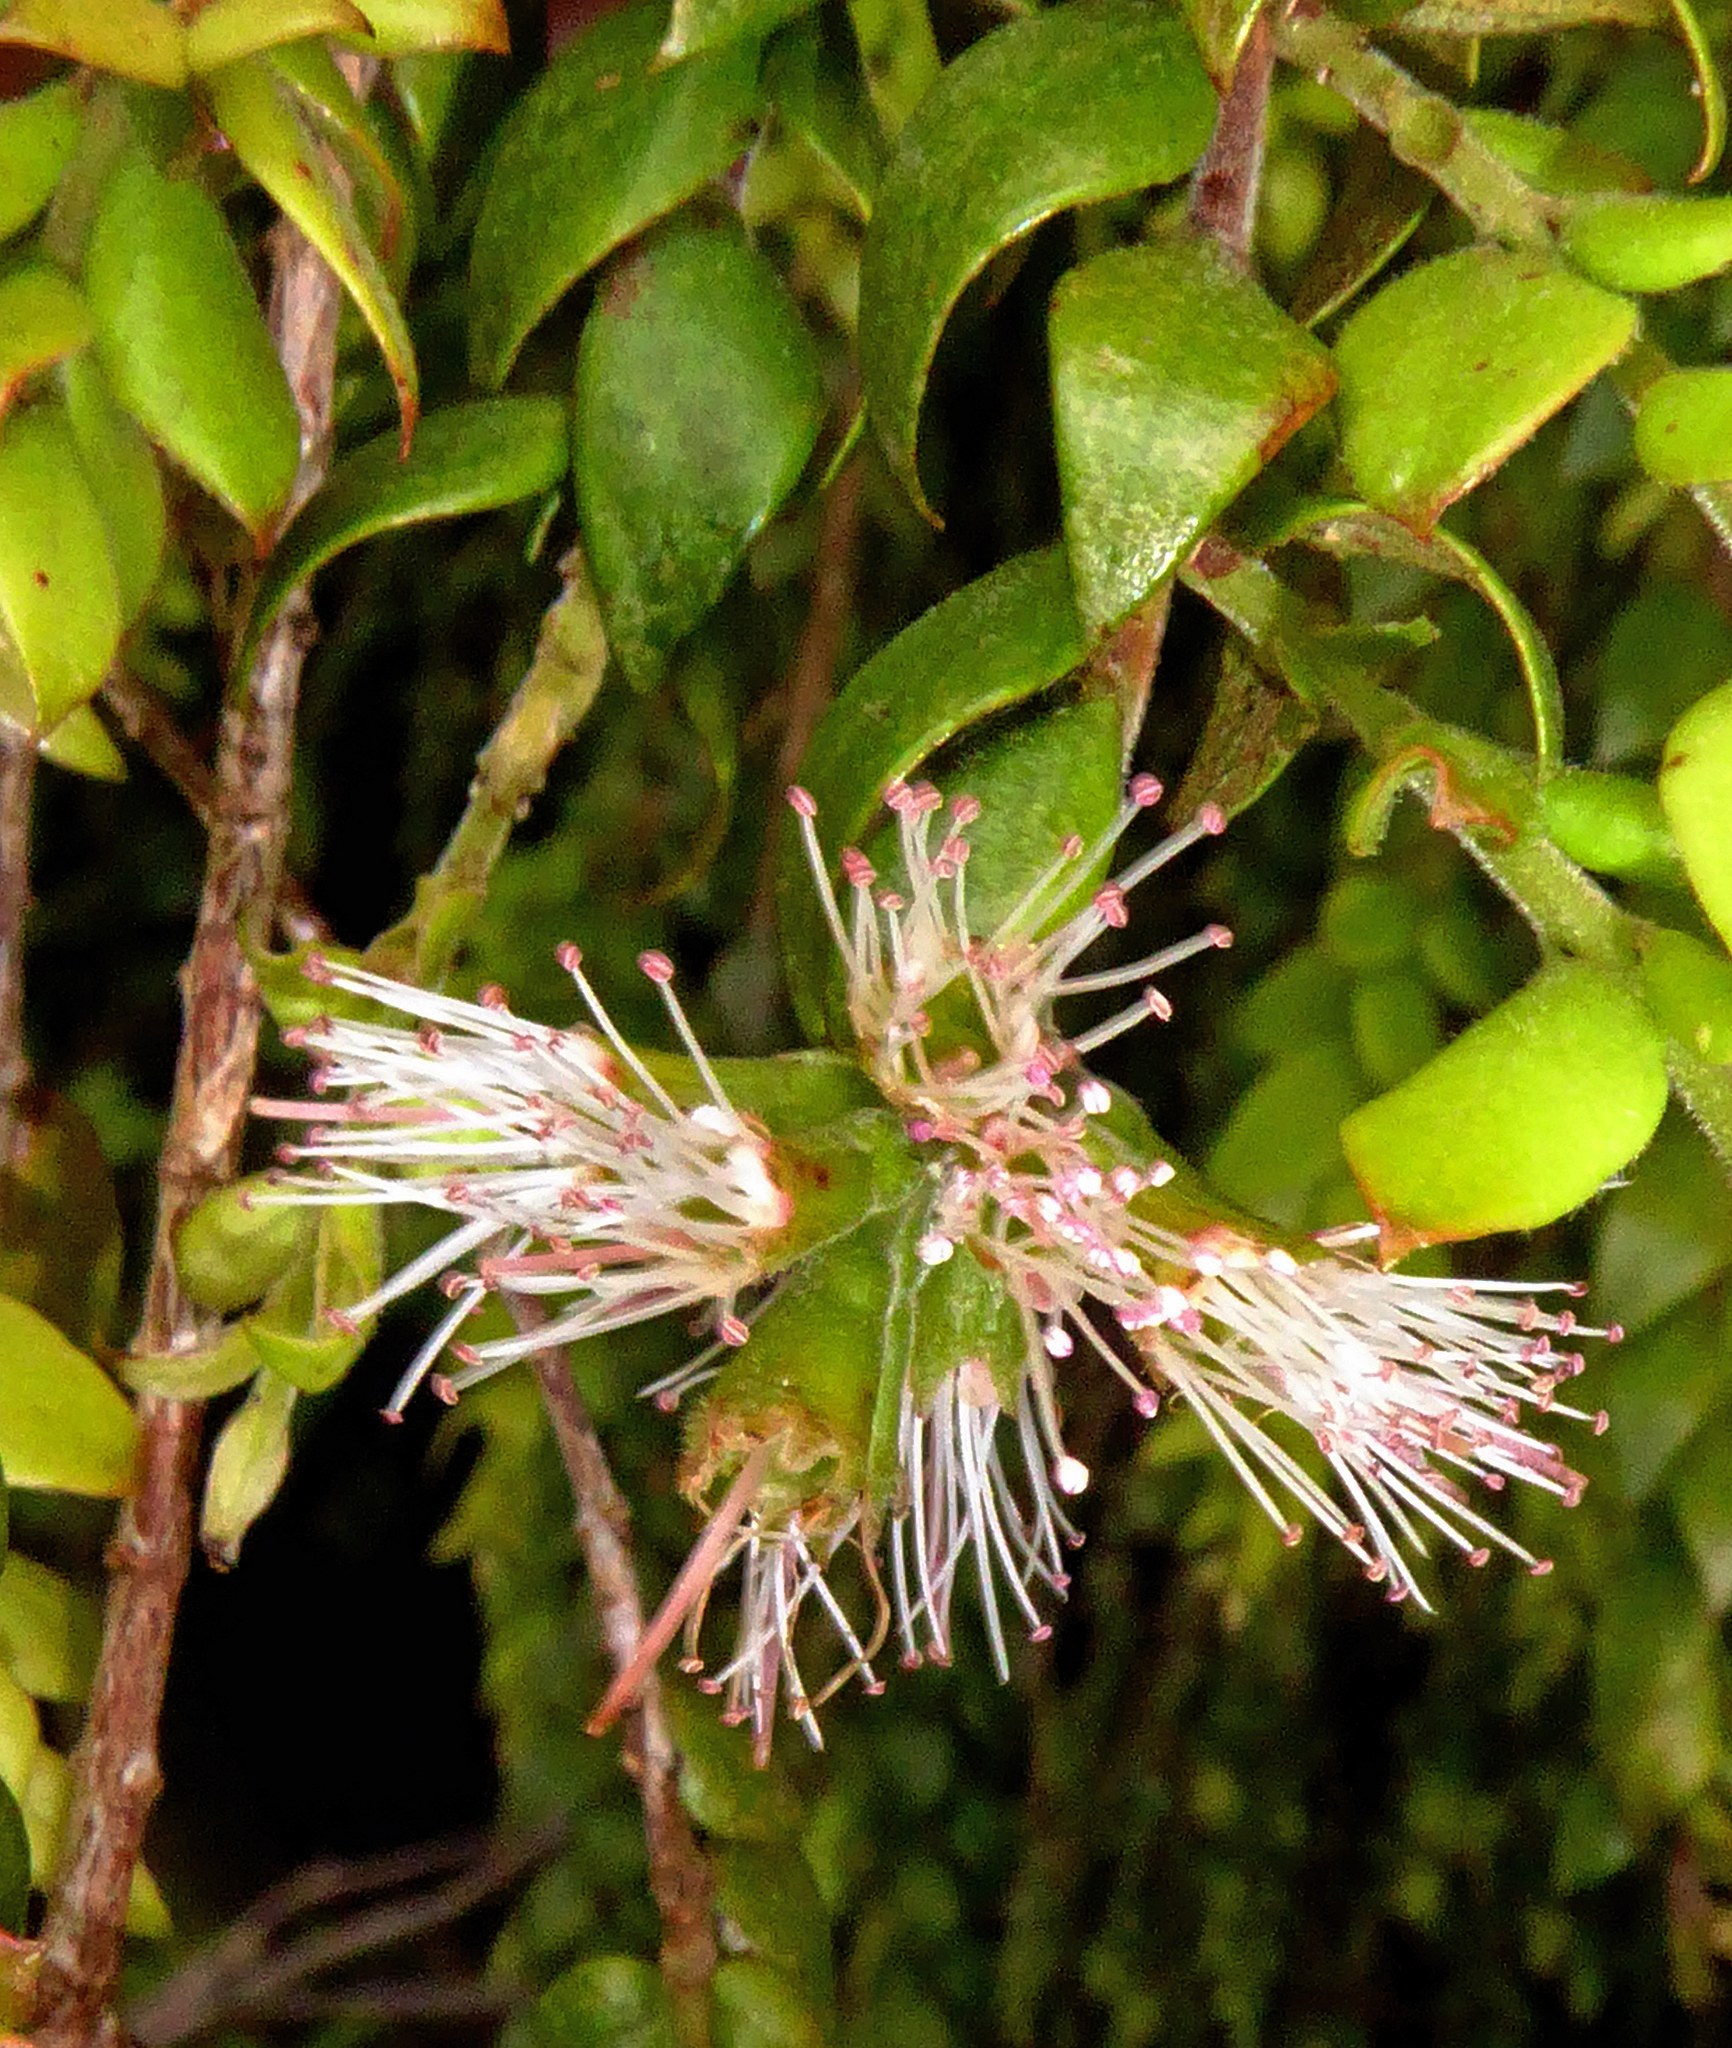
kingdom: Plantae
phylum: Tracheophyta
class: Magnoliopsida
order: Myrtales
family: Myrtaceae
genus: Metrosideros
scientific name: Metrosideros colensoi
